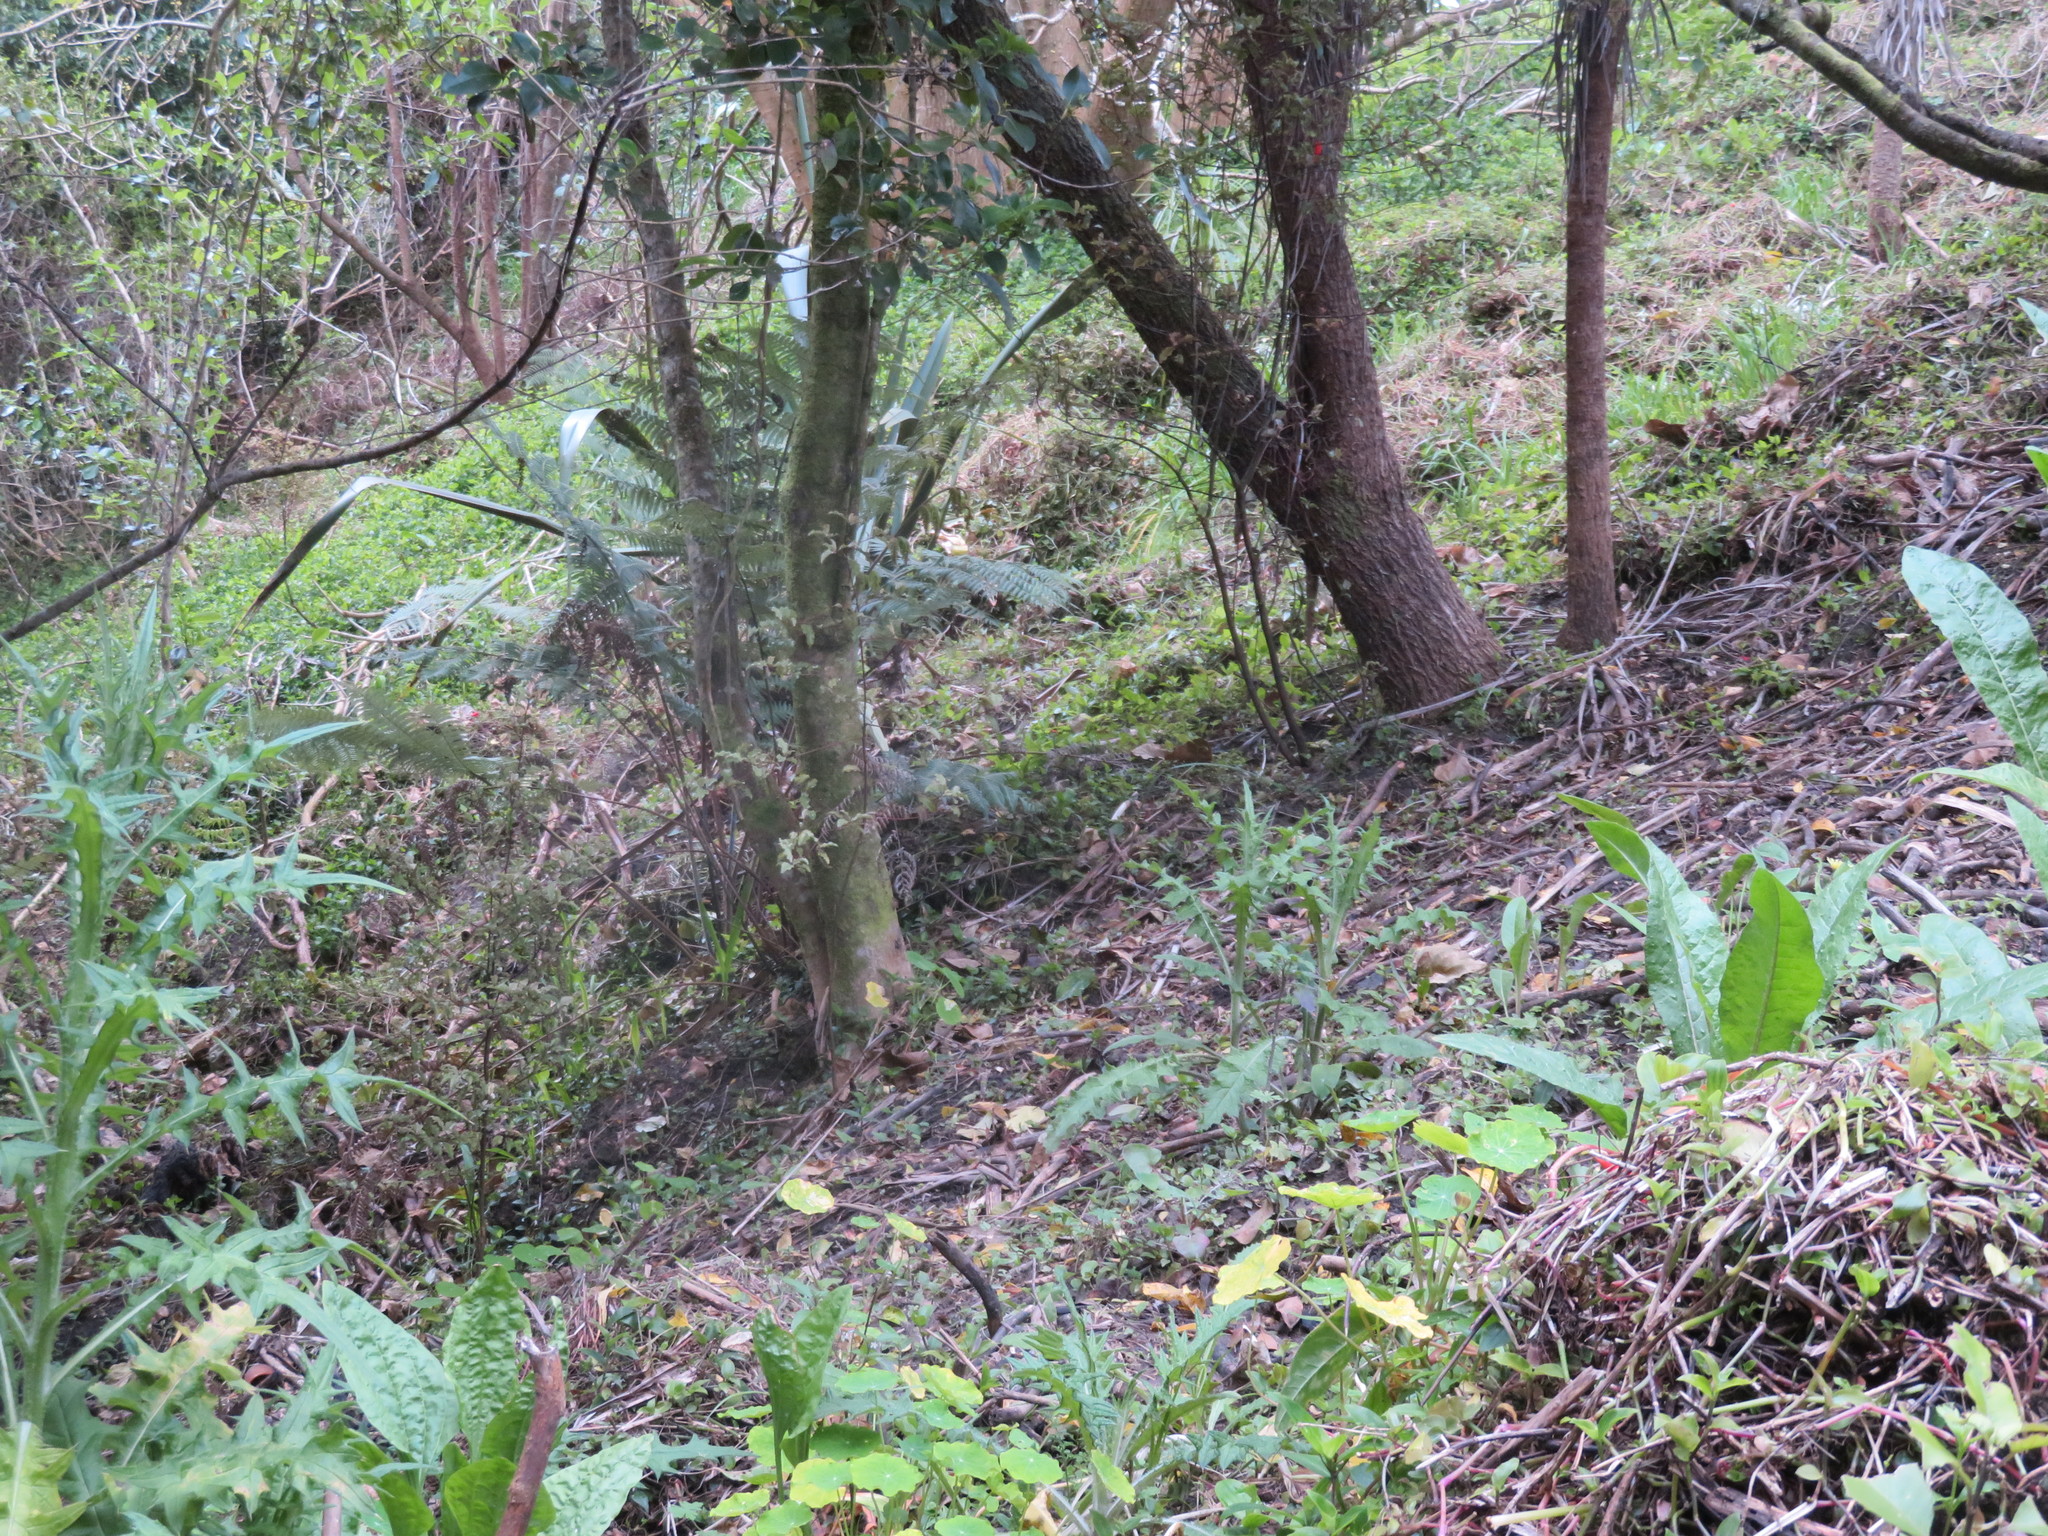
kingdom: Plantae
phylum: Tracheophyta
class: Liliopsida
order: Commelinales
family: Commelinaceae
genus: Tradescantia
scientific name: Tradescantia fluminensis
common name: Wandering-jew
